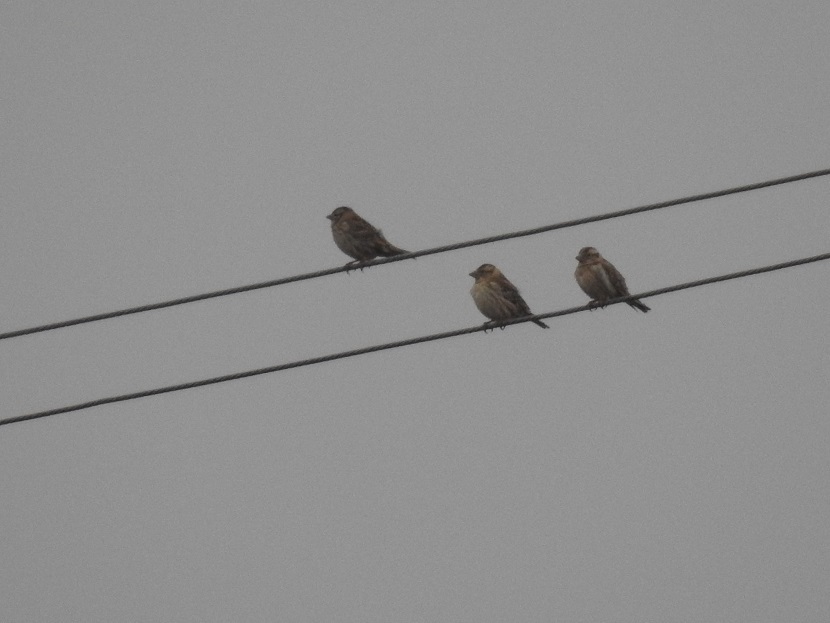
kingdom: Animalia
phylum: Chordata
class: Aves
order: Passeriformes
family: Passeridae
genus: Petronia
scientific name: Petronia petronia
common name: Rock sparrow
